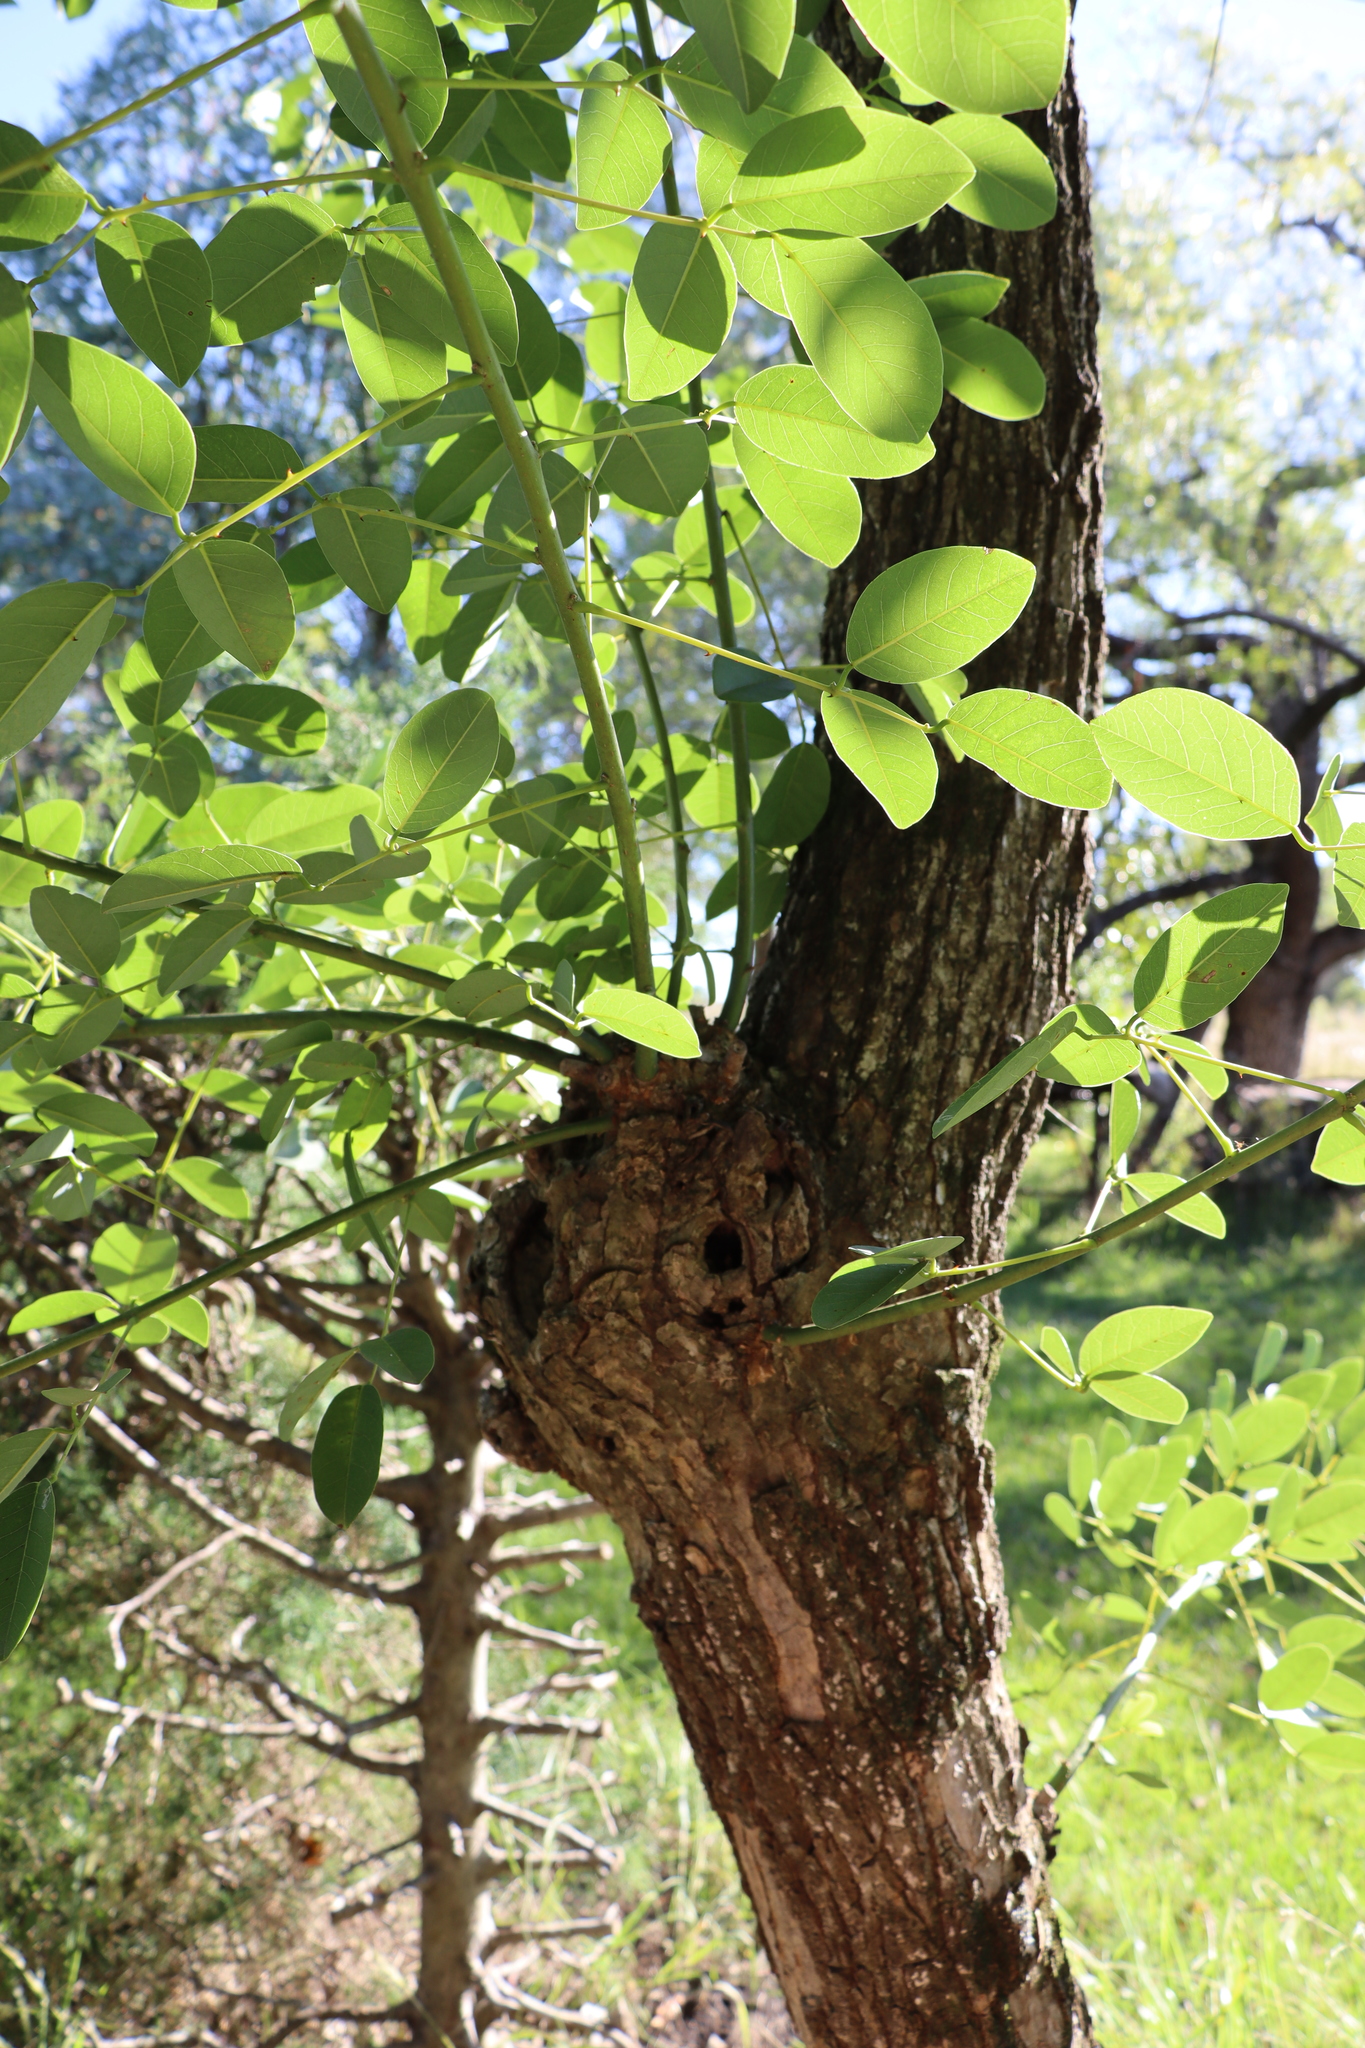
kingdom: Plantae
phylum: Tracheophyta
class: Magnoliopsida
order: Fabales
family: Fabaceae
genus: Erythrina
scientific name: Erythrina crista-galli
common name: Cockspur coral tree
